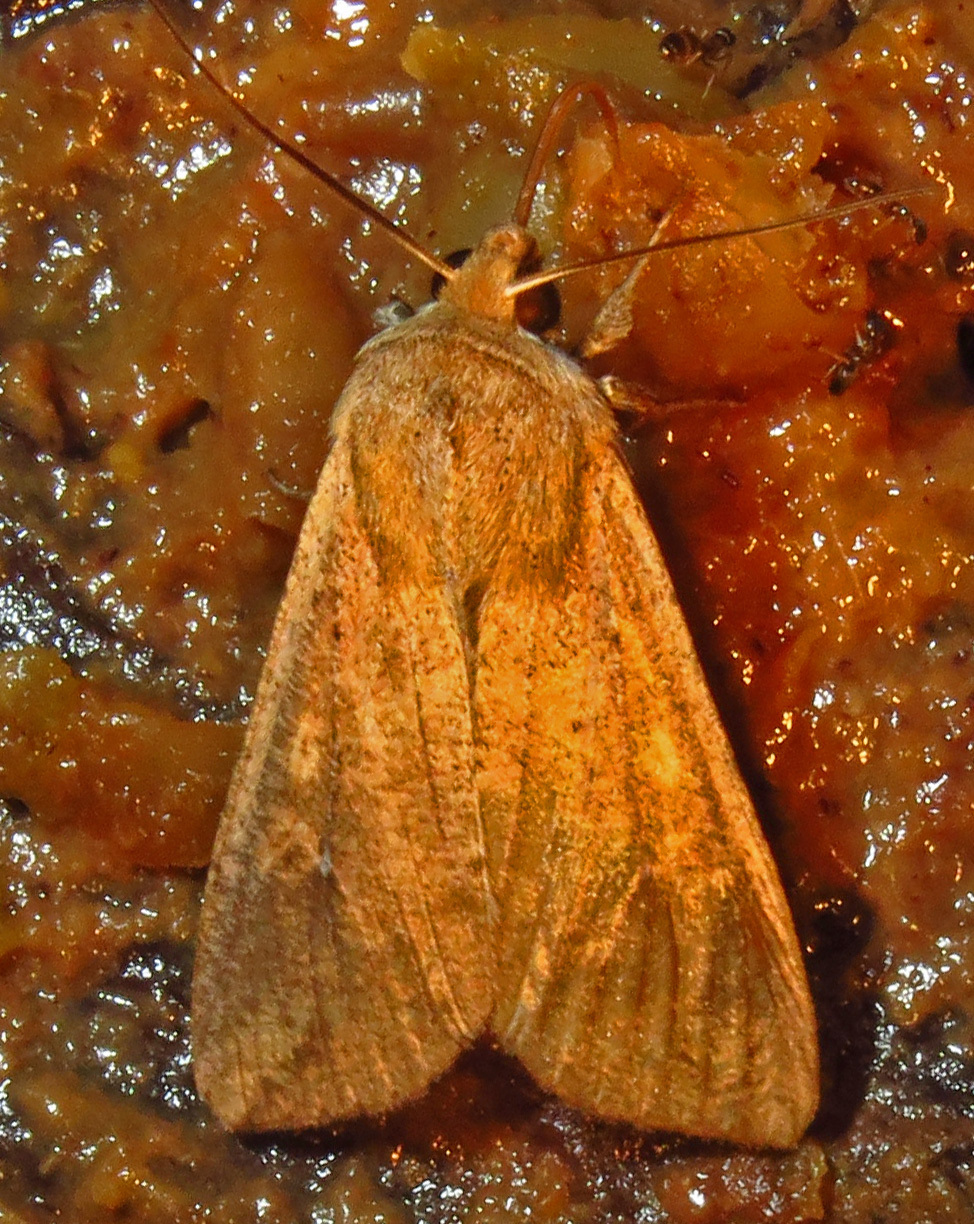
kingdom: Animalia
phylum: Arthropoda
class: Insecta
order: Lepidoptera
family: Noctuidae
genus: Mythimna
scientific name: Mythimna unipuncta
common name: White-speck
